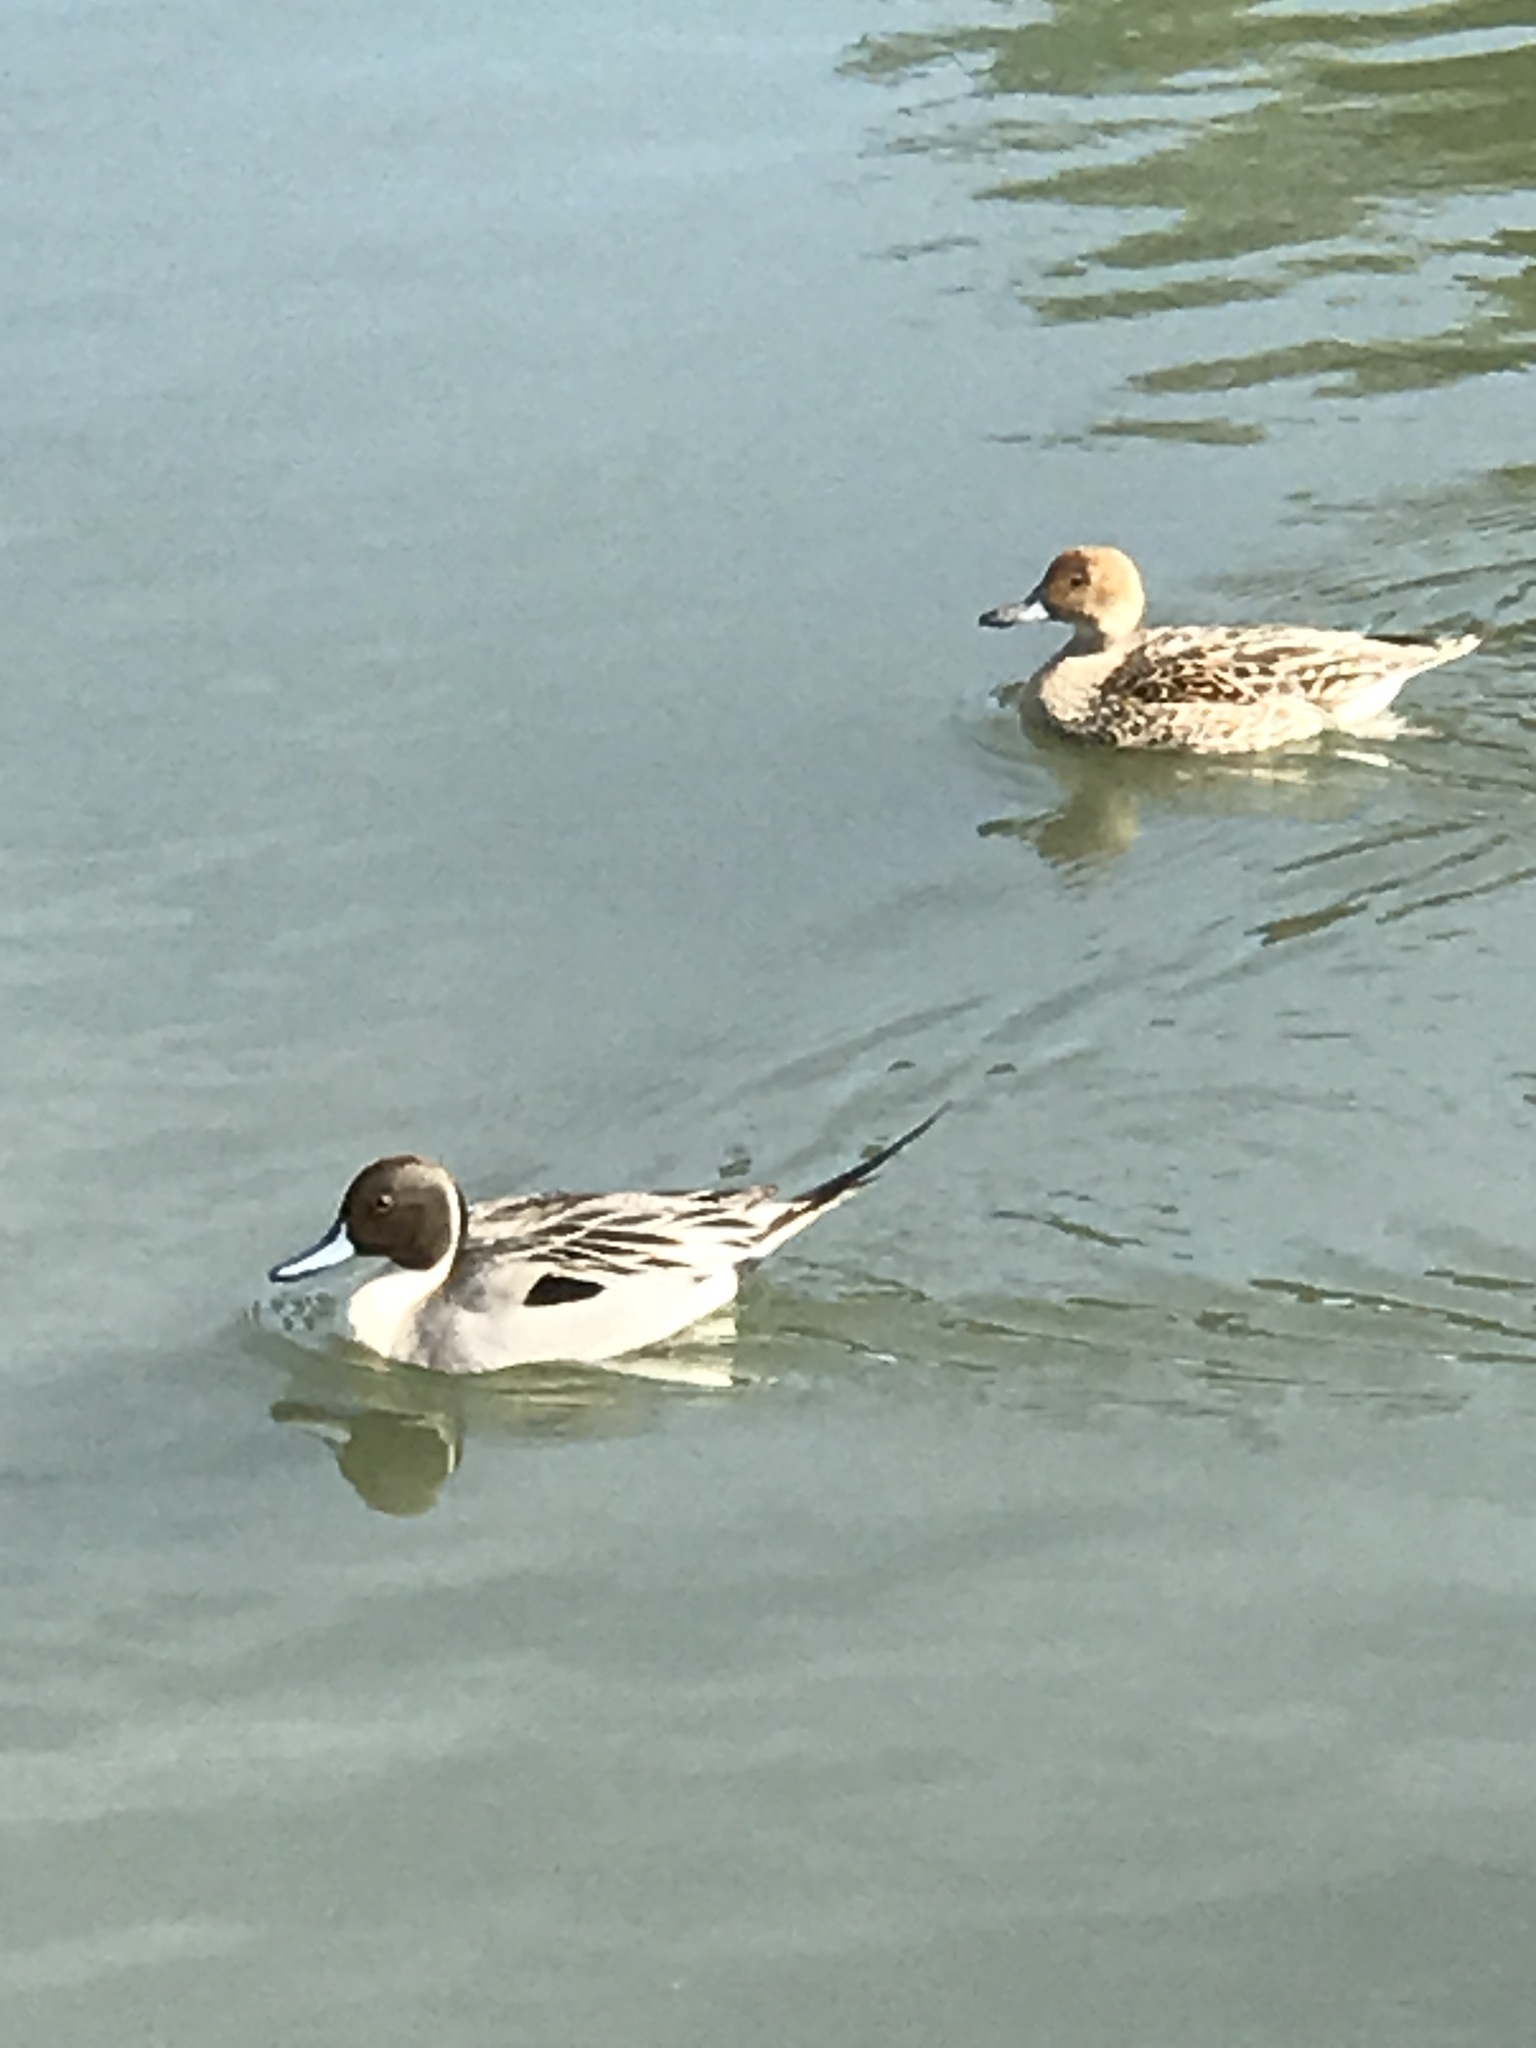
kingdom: Animalia
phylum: Chordata
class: Aves
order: Anseriformes
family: Anatidae
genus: Anas
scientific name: Anas acuta
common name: Northern pintail
